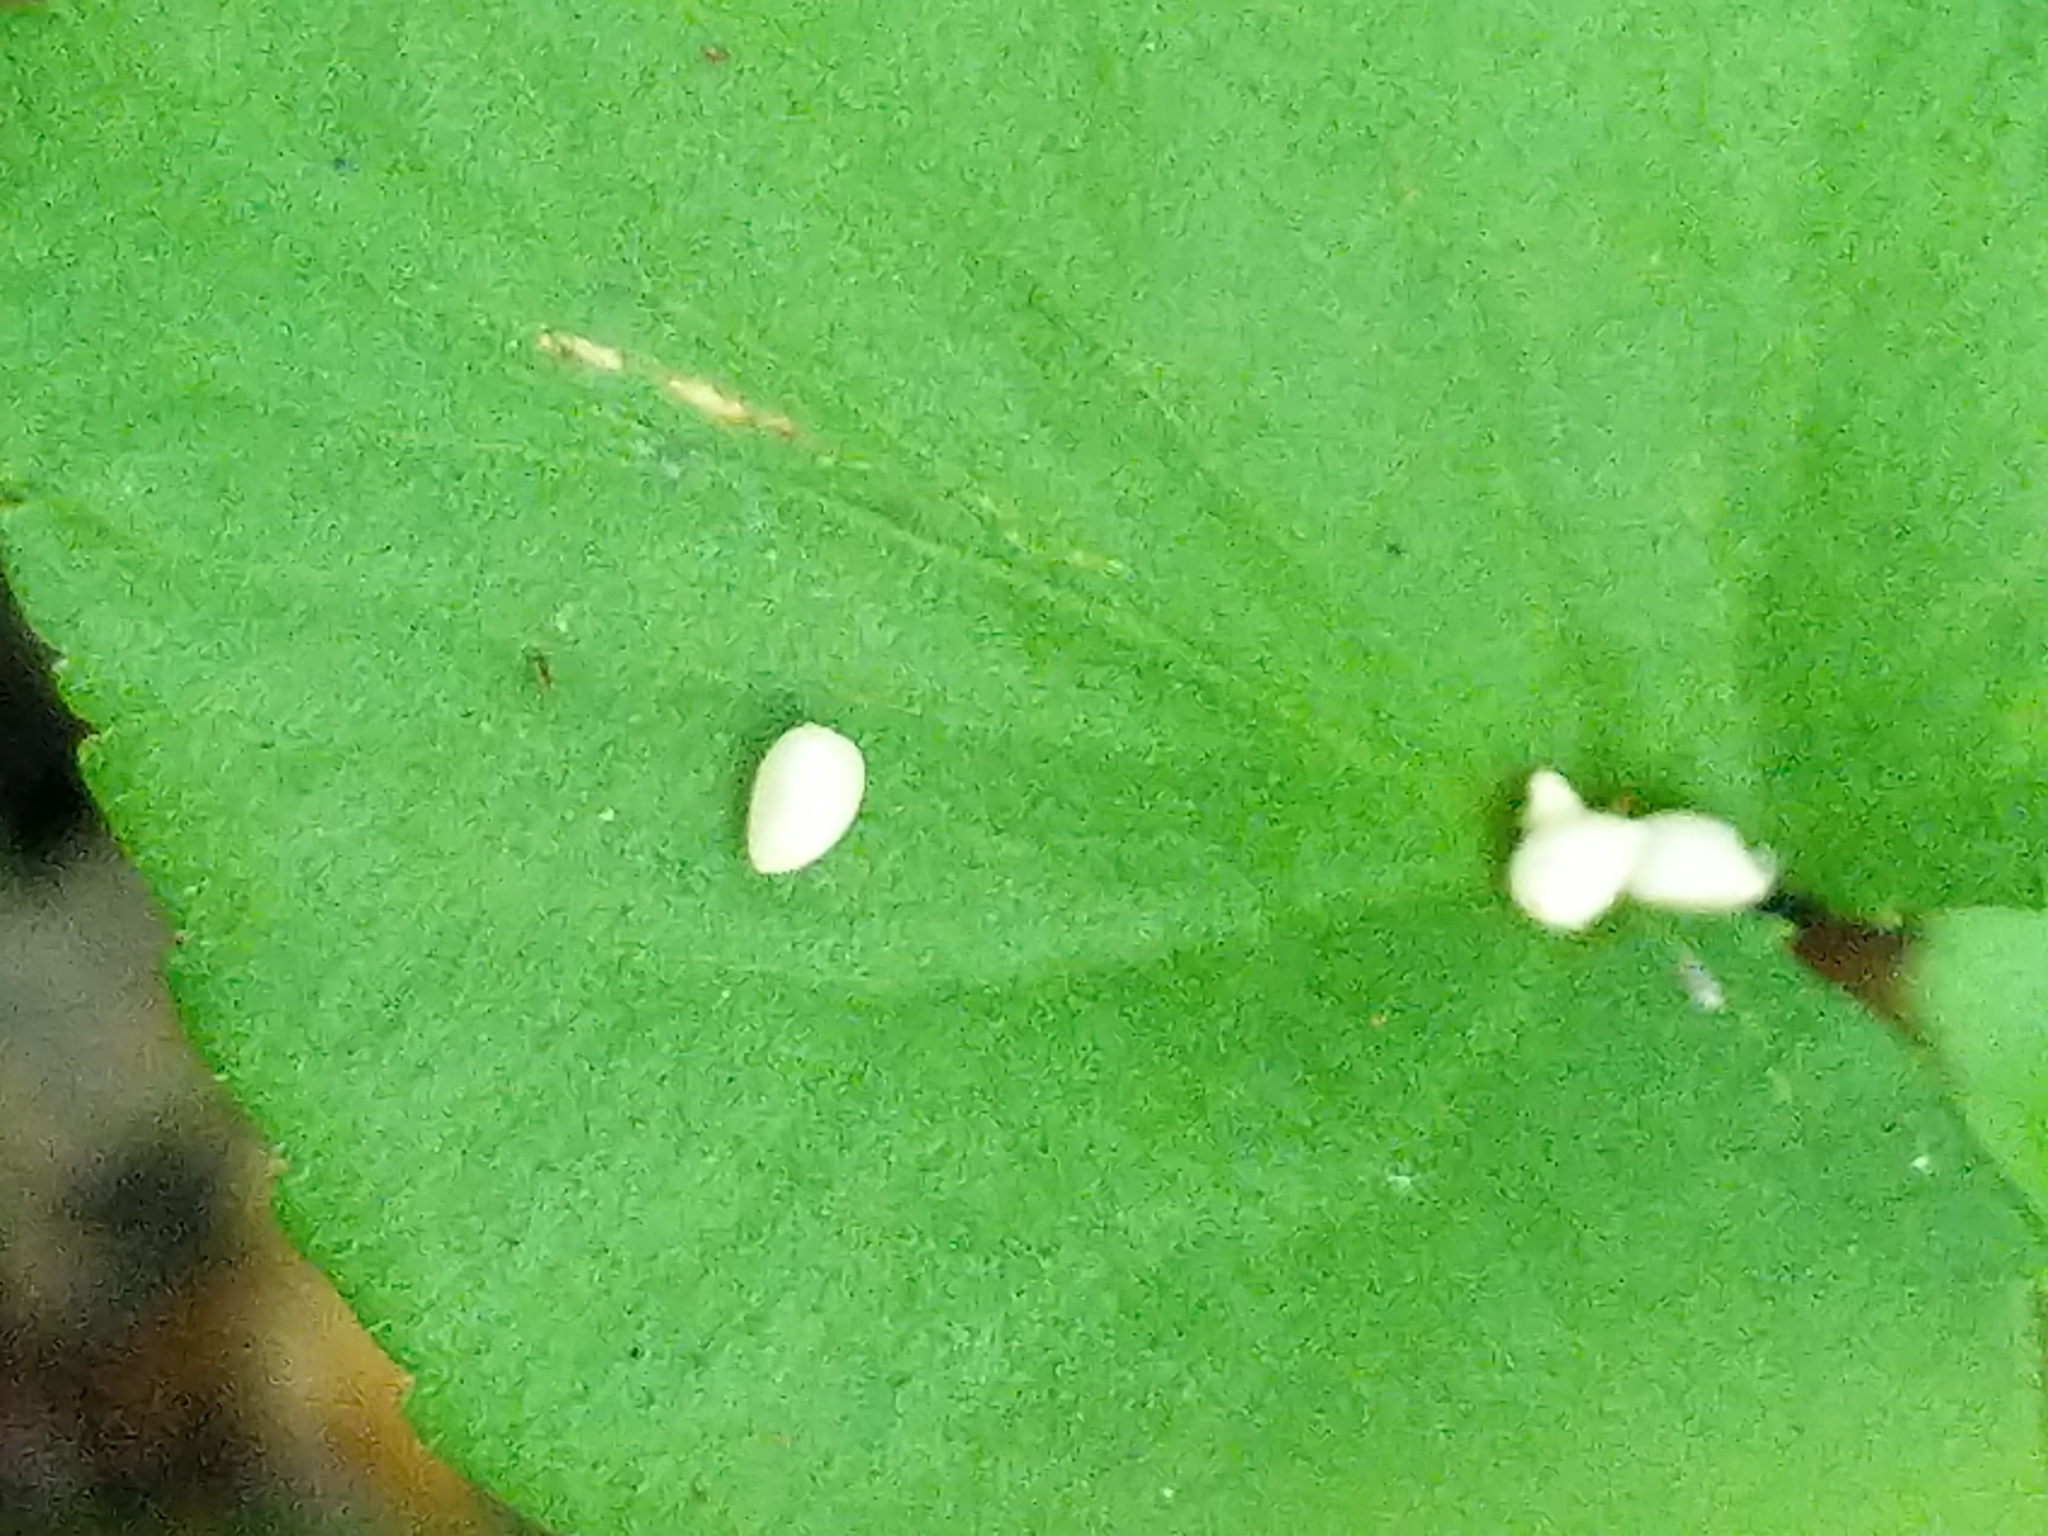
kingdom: Animalia
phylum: Arthropoda
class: Insecta
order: Hymenoptera
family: Tenthredinidae
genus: Nefusa
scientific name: Nefusa ambigua
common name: Violet leafmining sawfly
